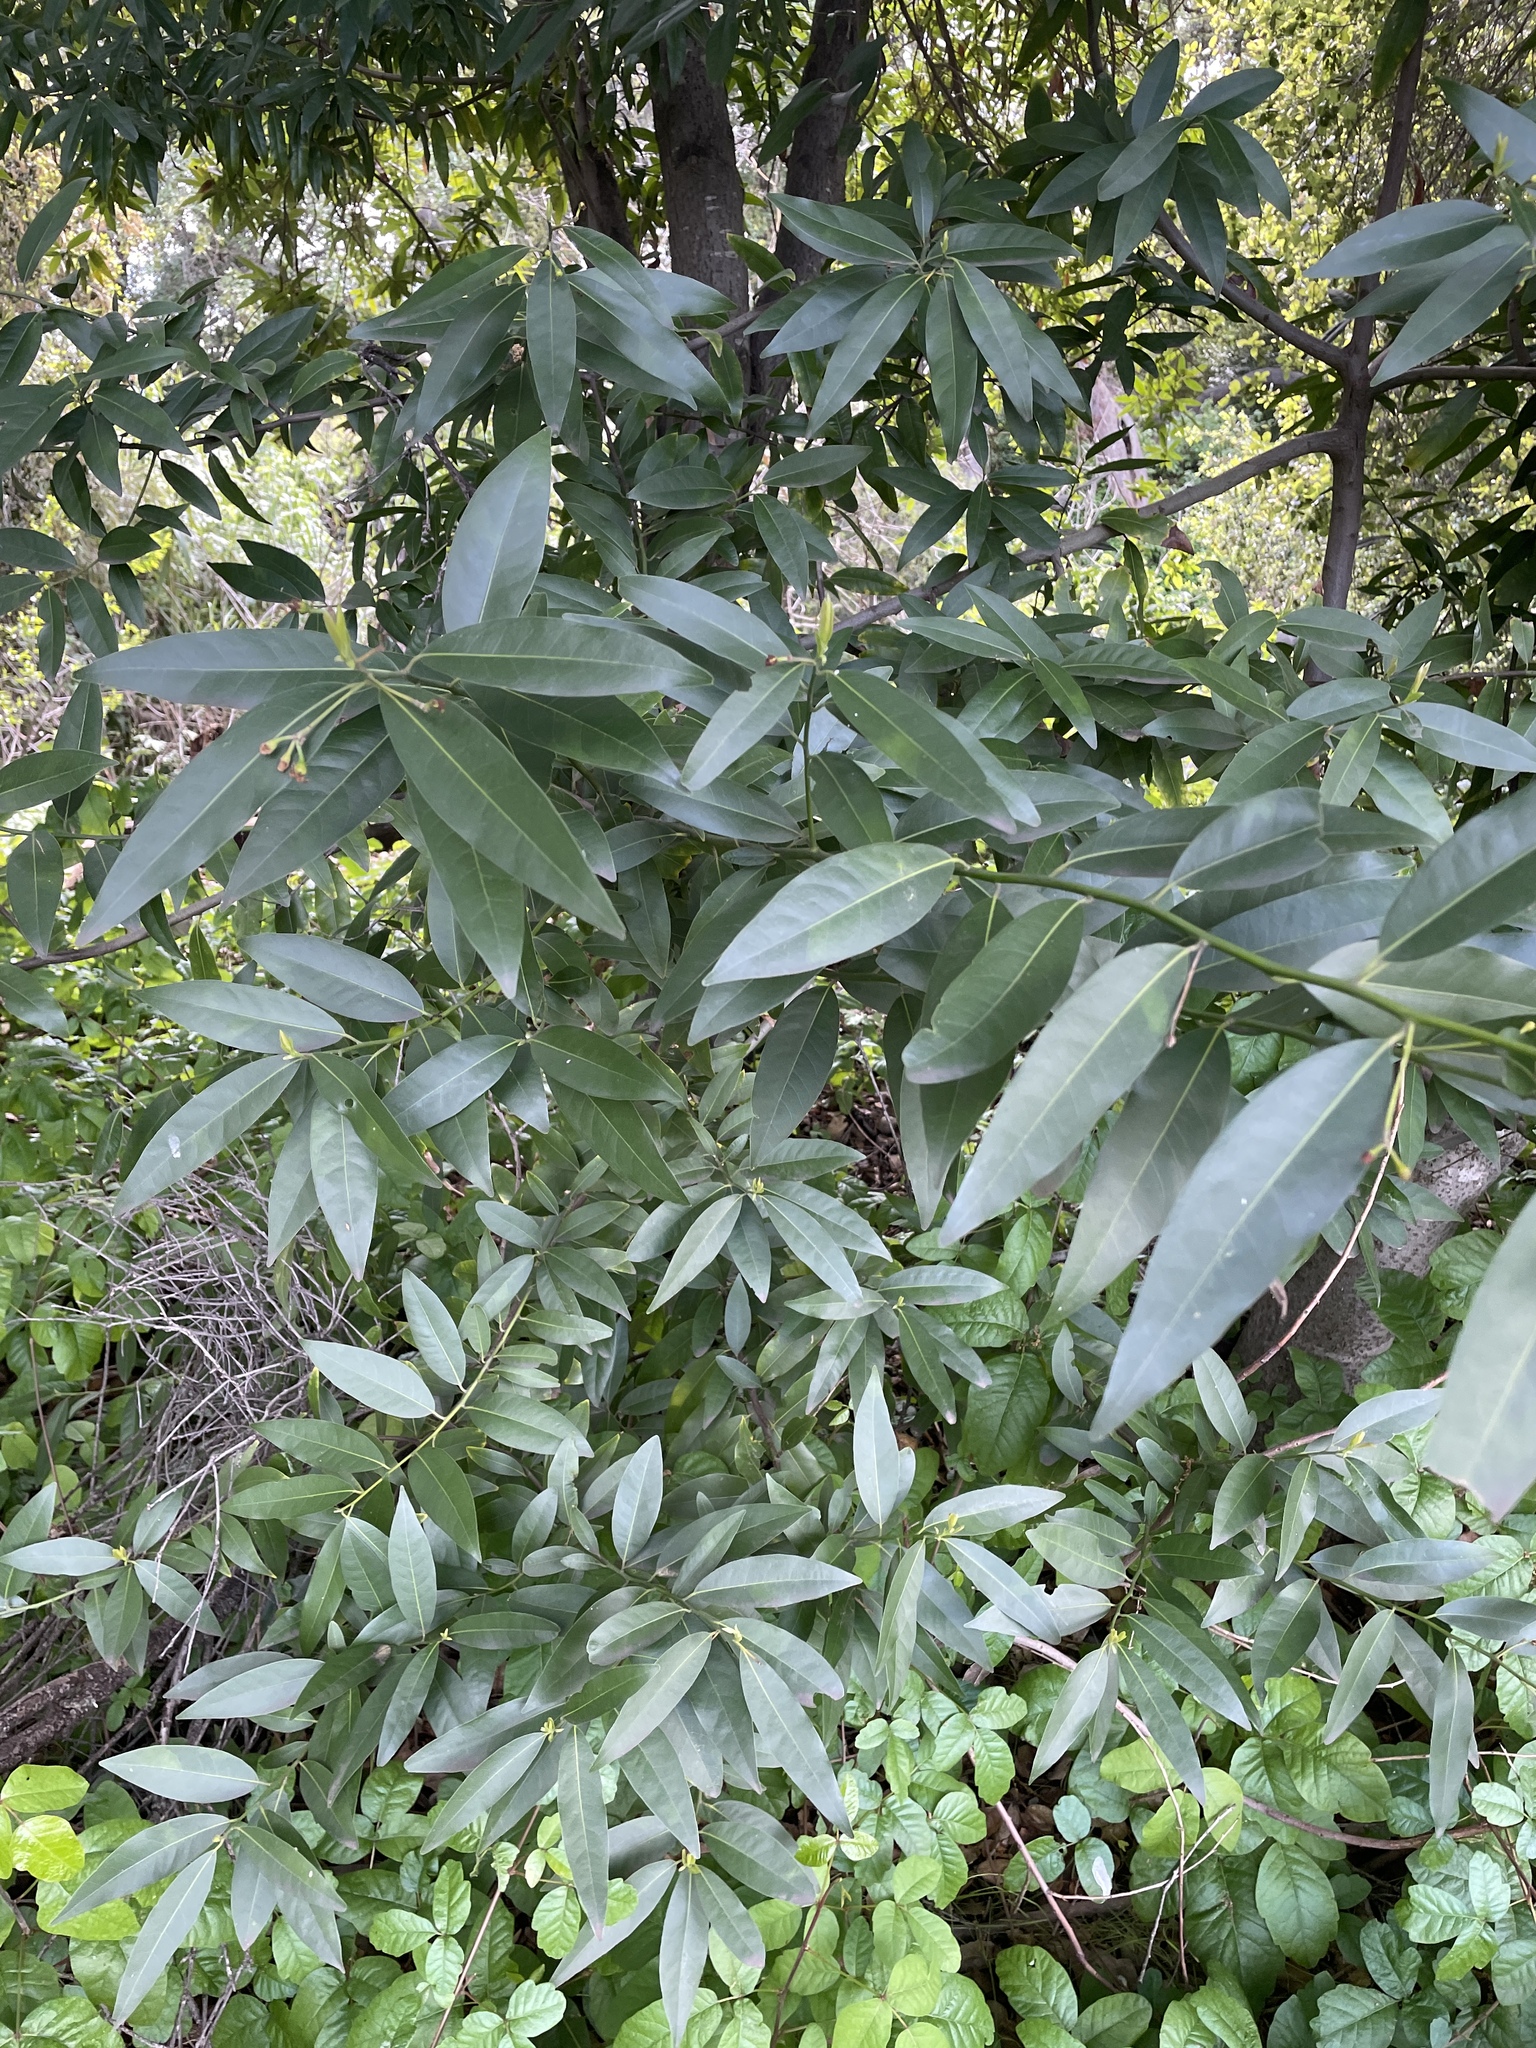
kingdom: Plantae
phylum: Tracheophyta
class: Magnoliopsida
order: Laurales
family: Lauraceae
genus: Umbellularia
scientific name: Umbellularia californica
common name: California bay
